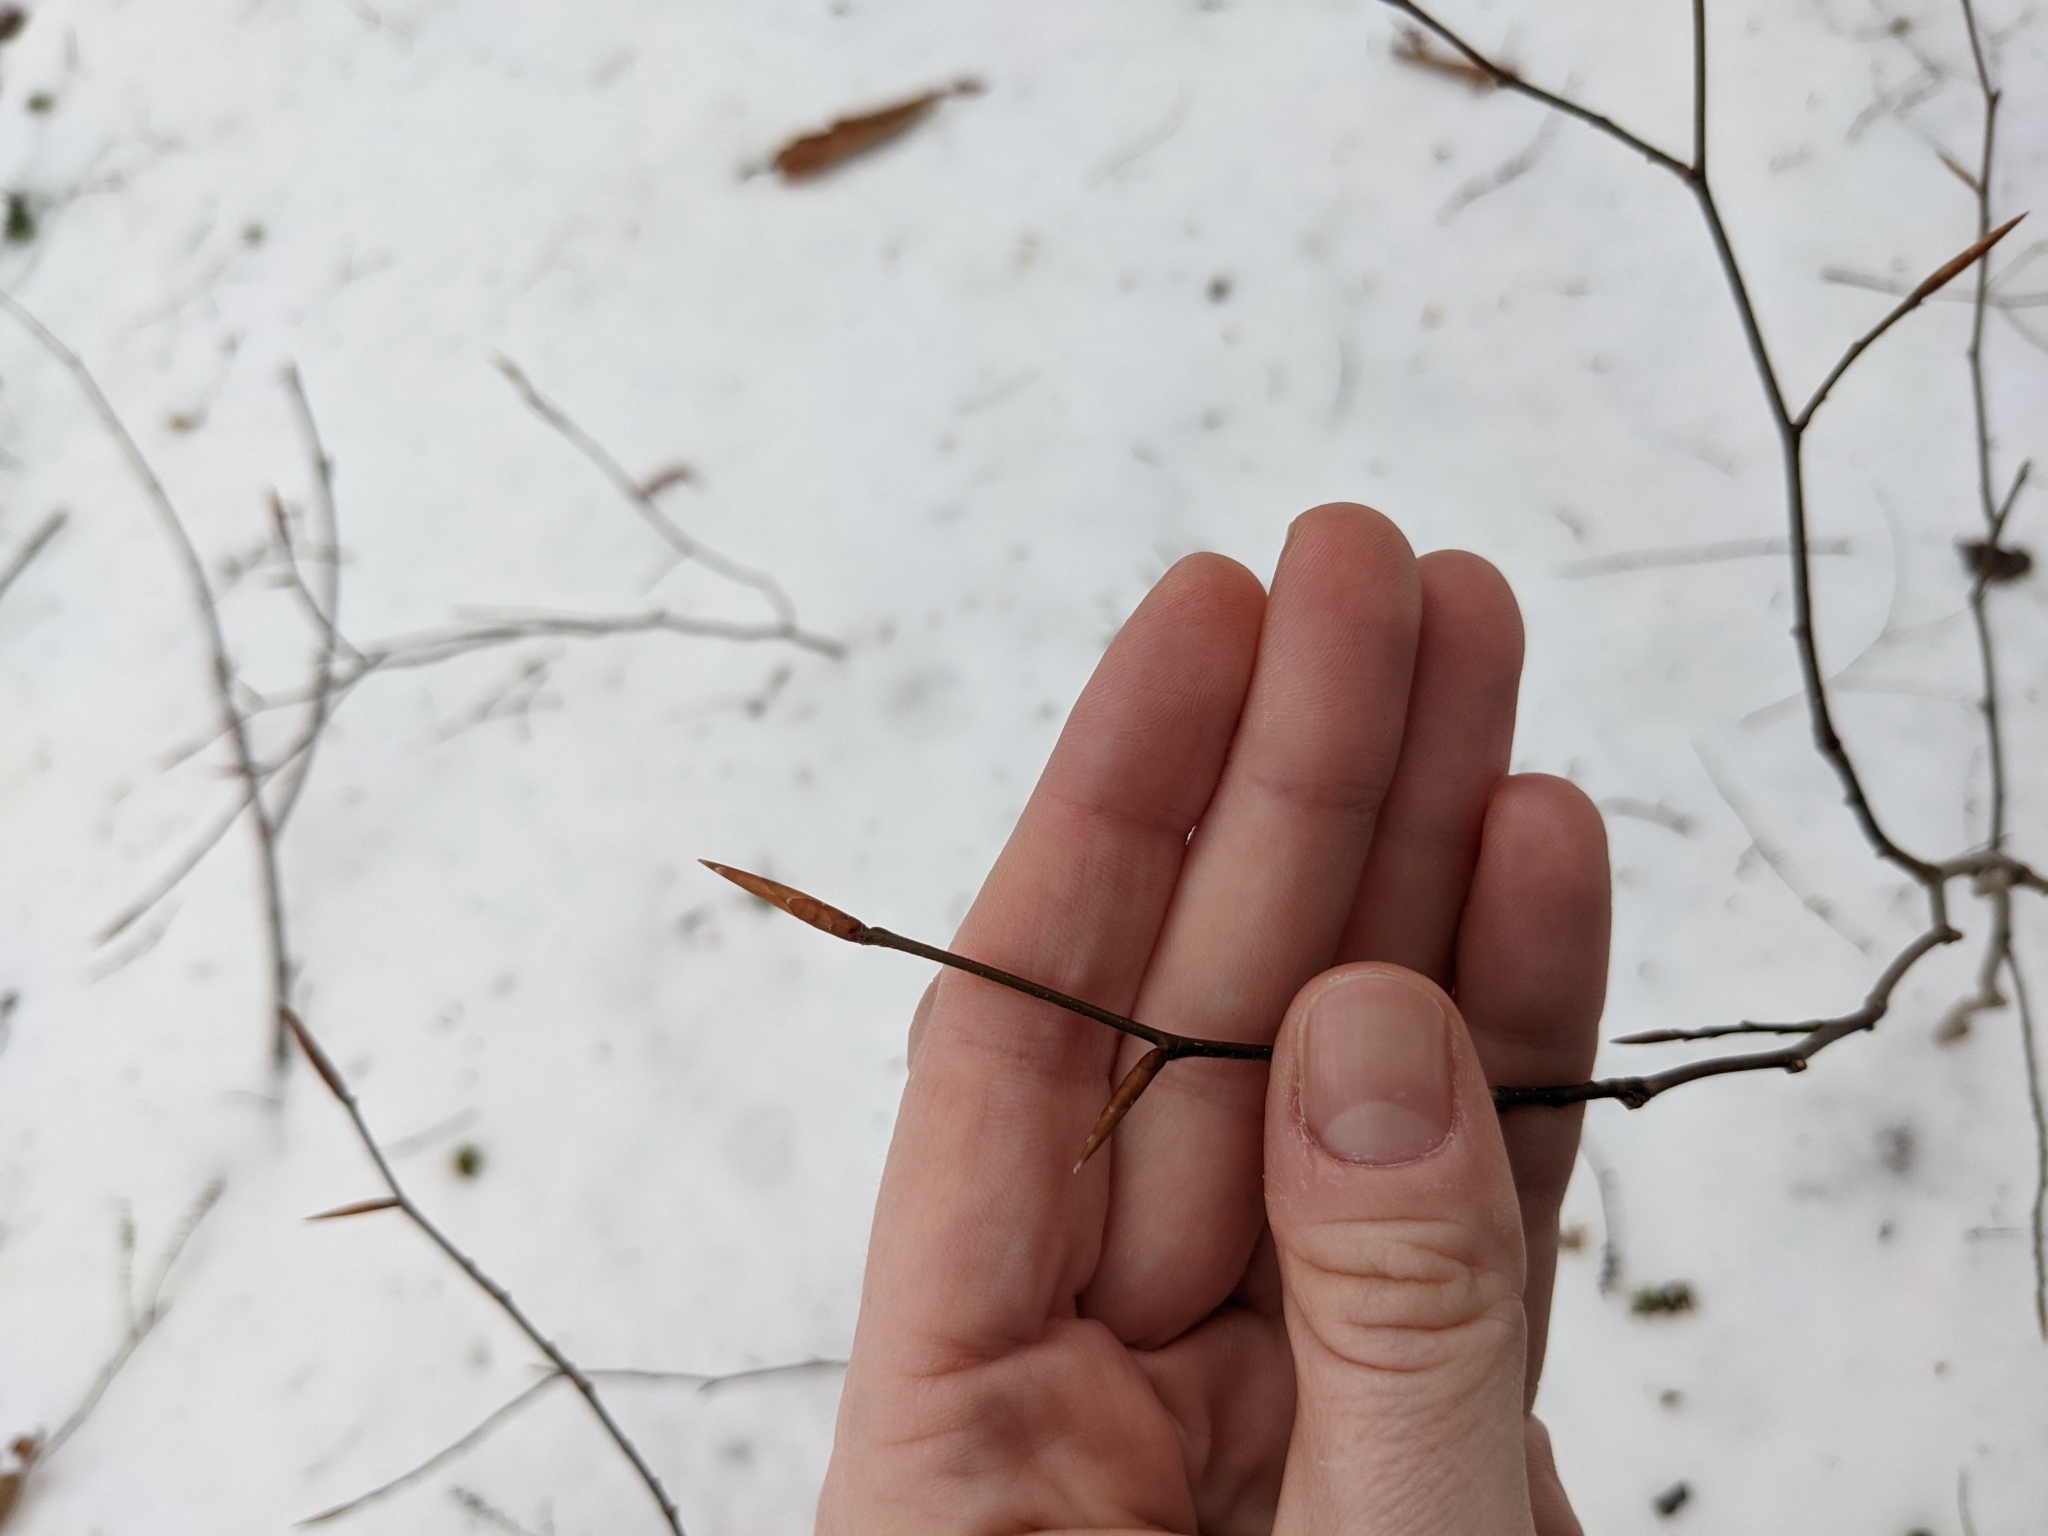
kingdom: Plantae
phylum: Tracheophyta
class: Magnoliopsida
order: Fagales
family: Fagaceae
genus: Fagus
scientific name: Fagus grandifolia
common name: American beech
